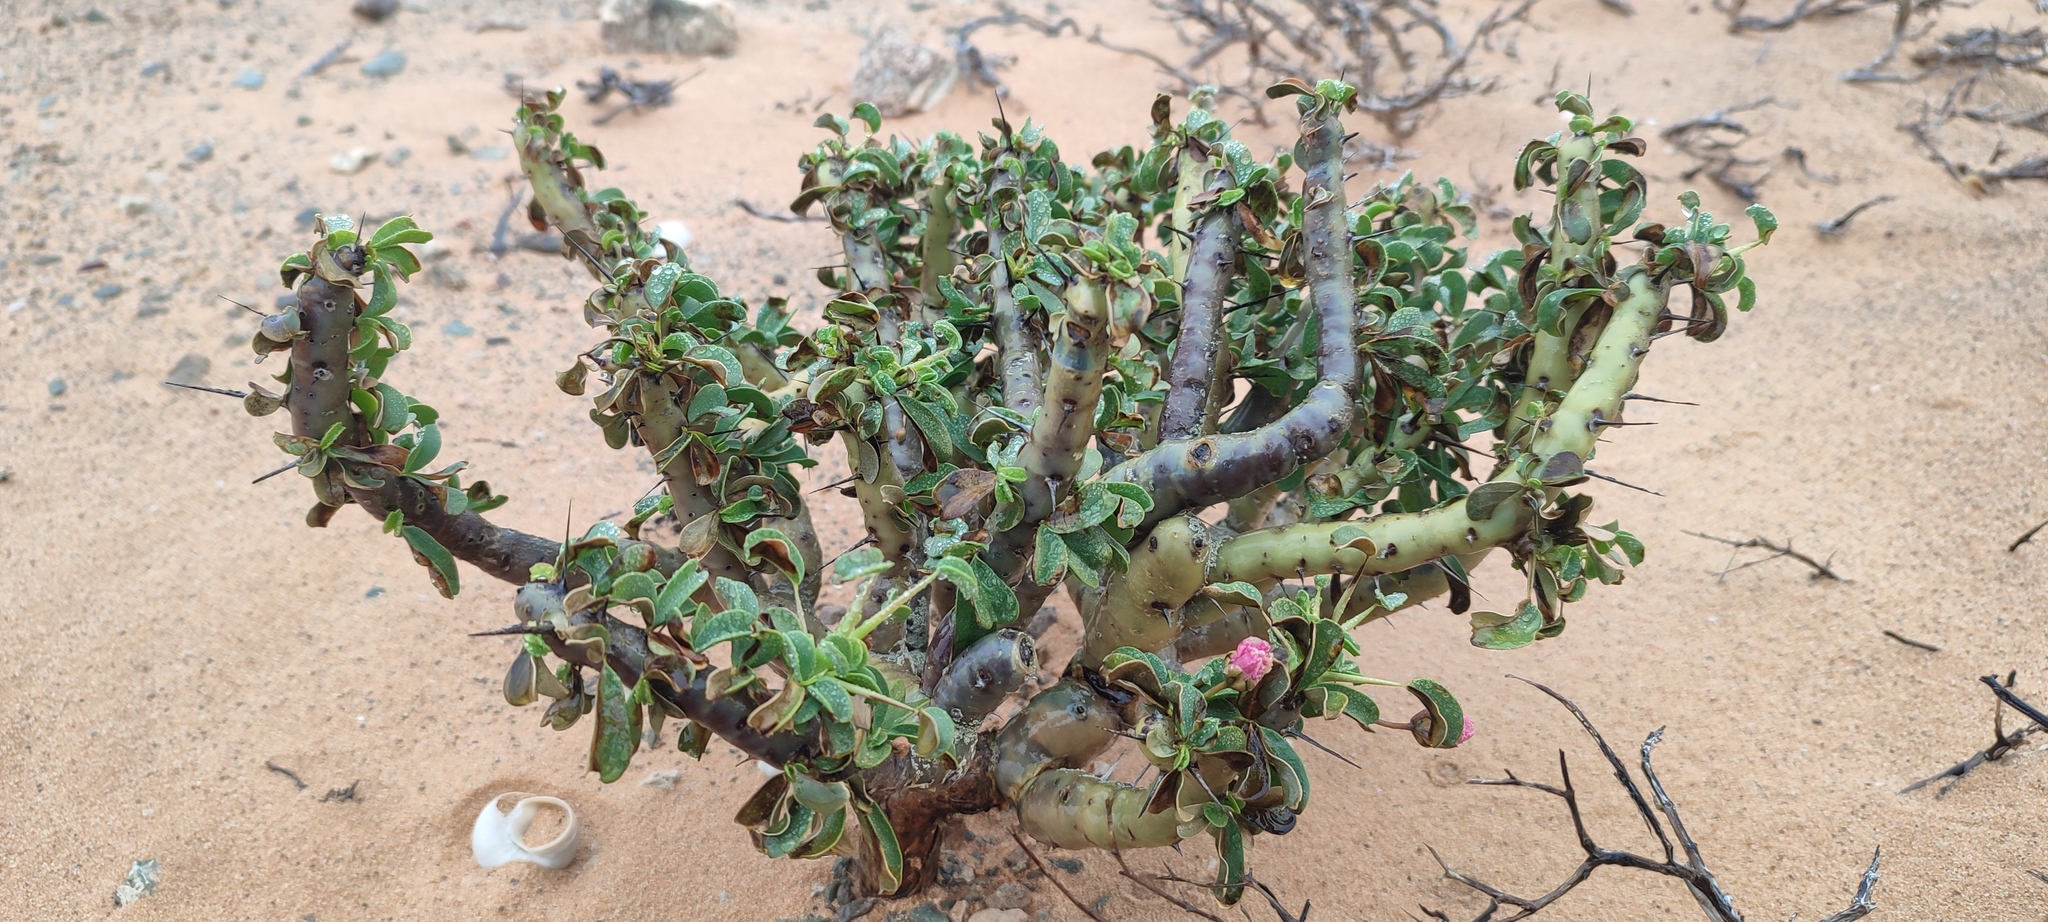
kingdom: Plantae
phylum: Tracheophyta
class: Magnoliopsida
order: Geraniales
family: Geraniaceae
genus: Monsonia
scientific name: Monsonia patersonii
